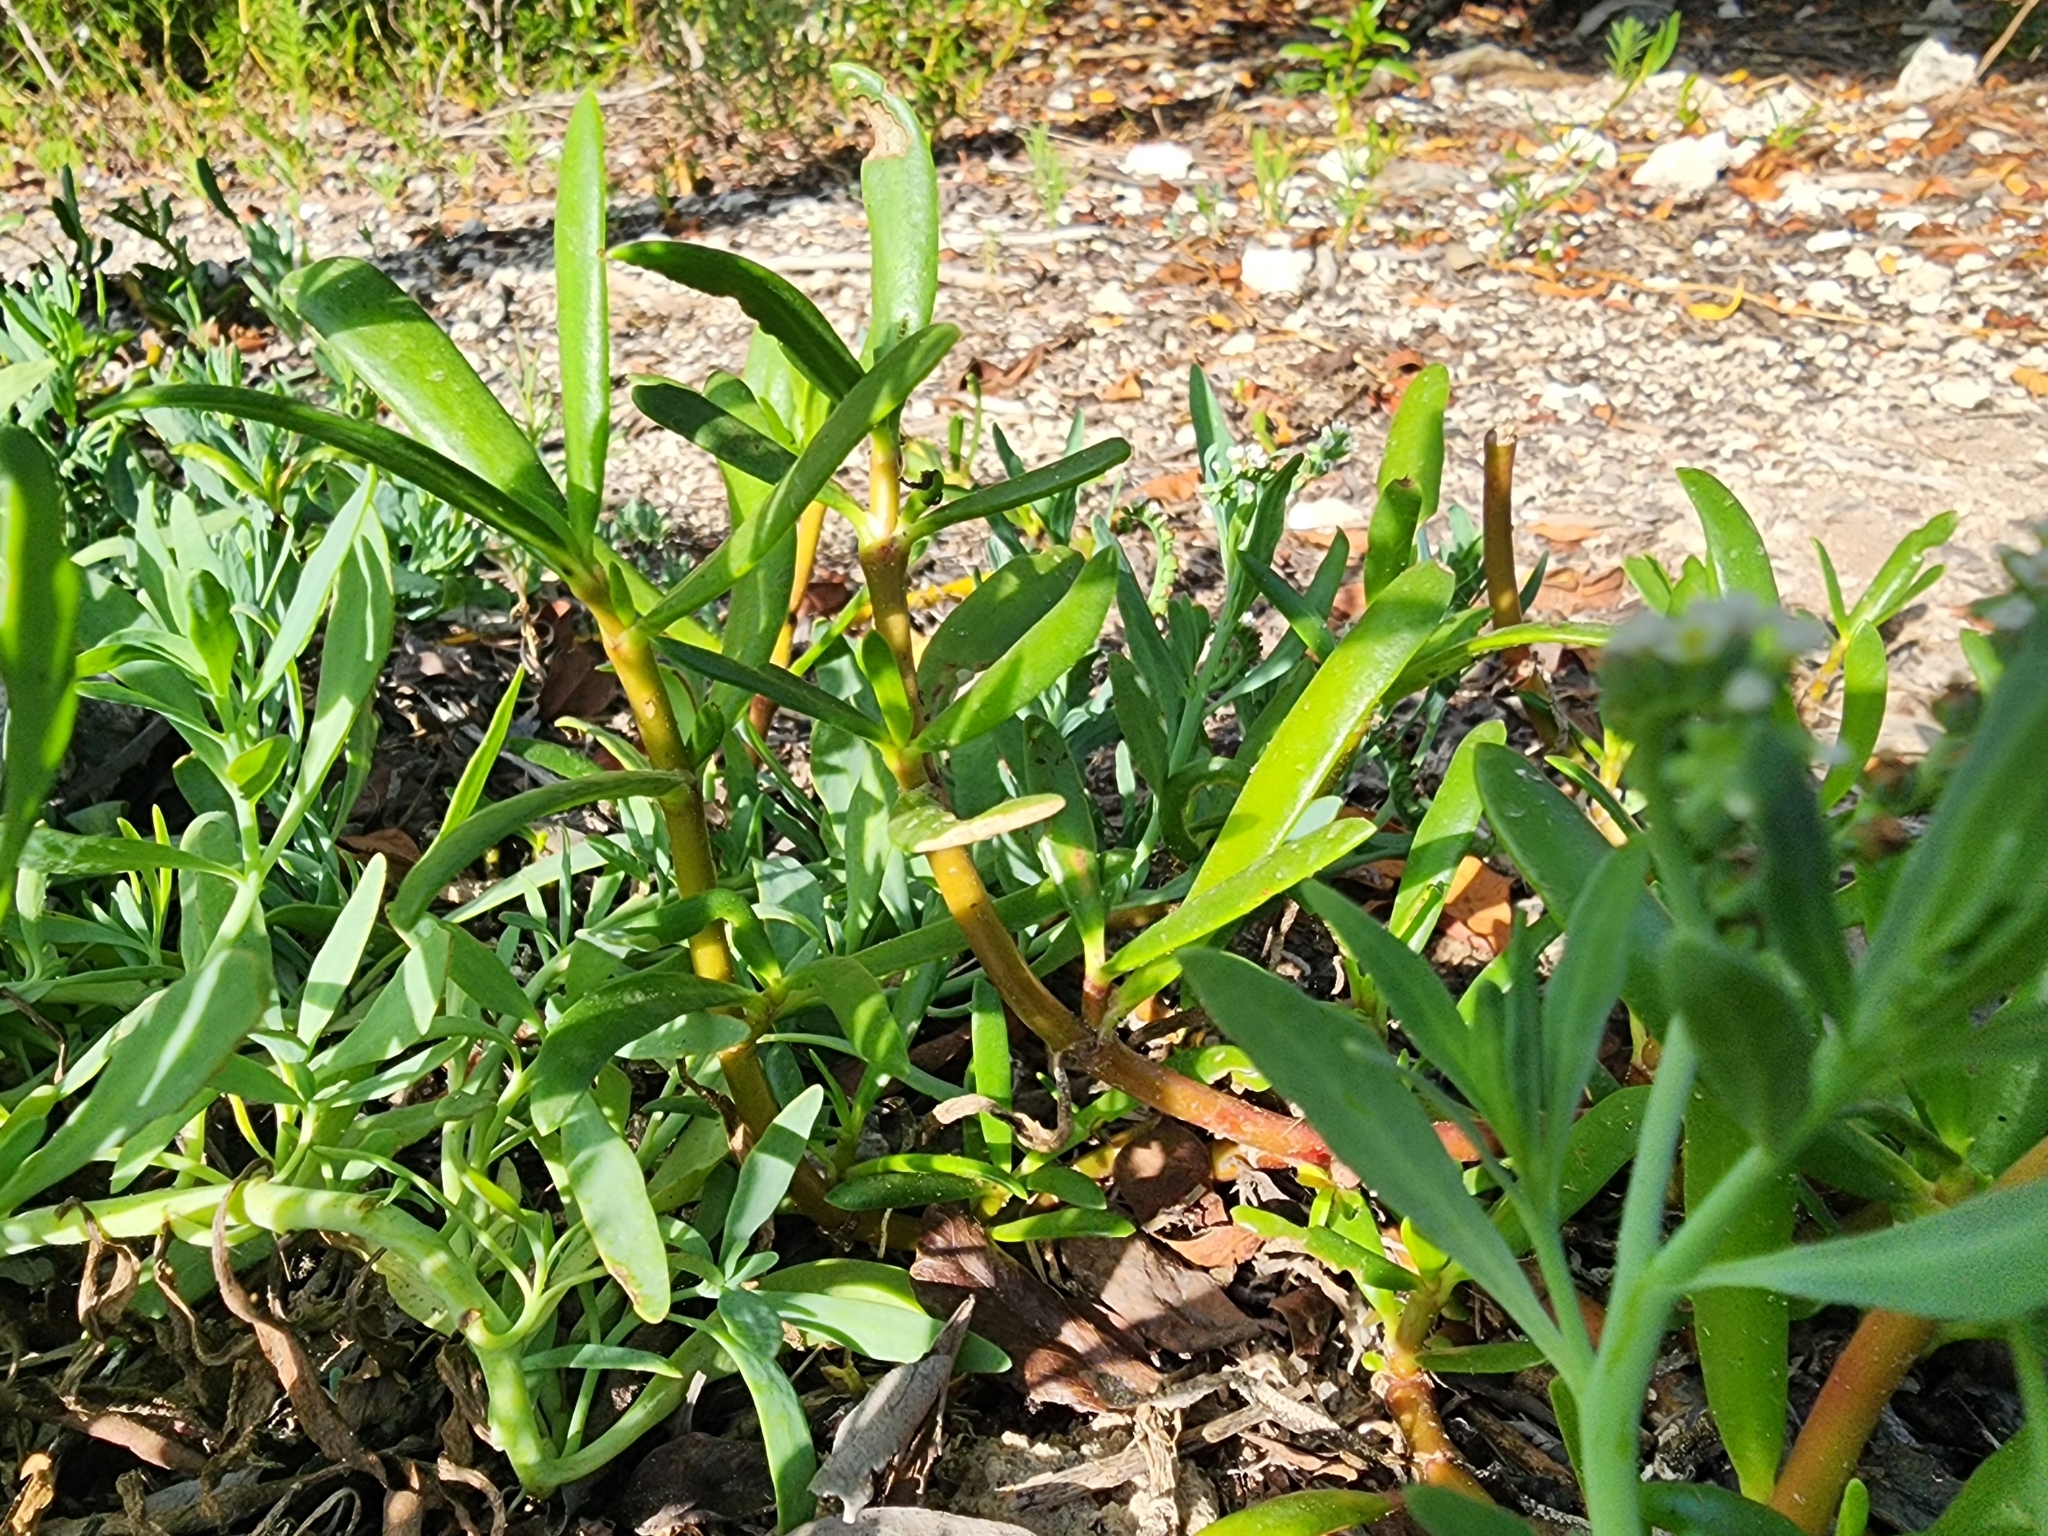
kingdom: Plantae
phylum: Tracheophyta
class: Magnoliopsida
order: Caryophyllales
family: Aizoaceae
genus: Sesuvium
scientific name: Sesuvium portulacastrum
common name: Sea-purslane
